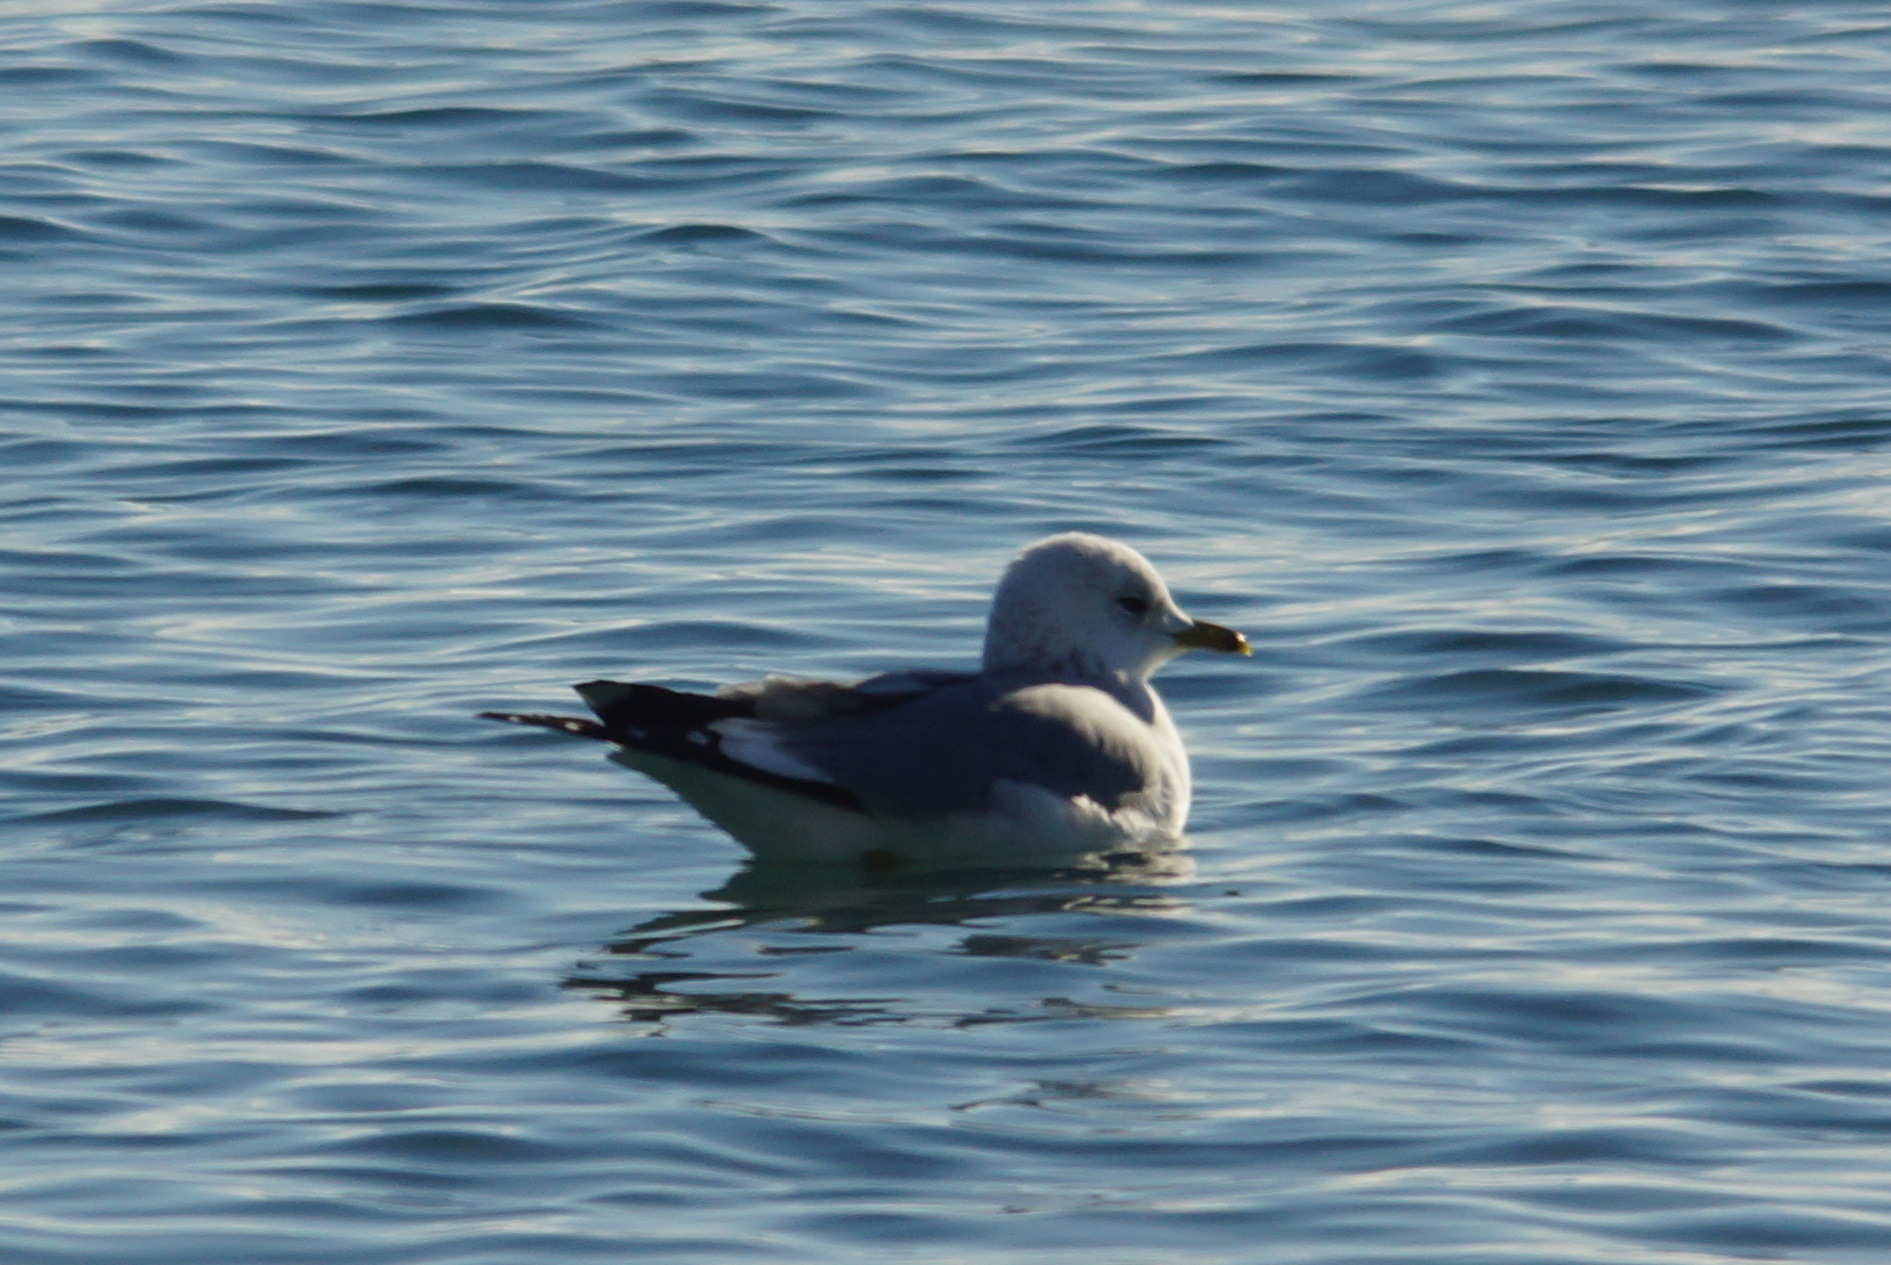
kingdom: Animalia
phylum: Chordata
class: Aves
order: Charadriiformes
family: Laridae
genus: Larus
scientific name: Larus canus
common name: Mew gull
